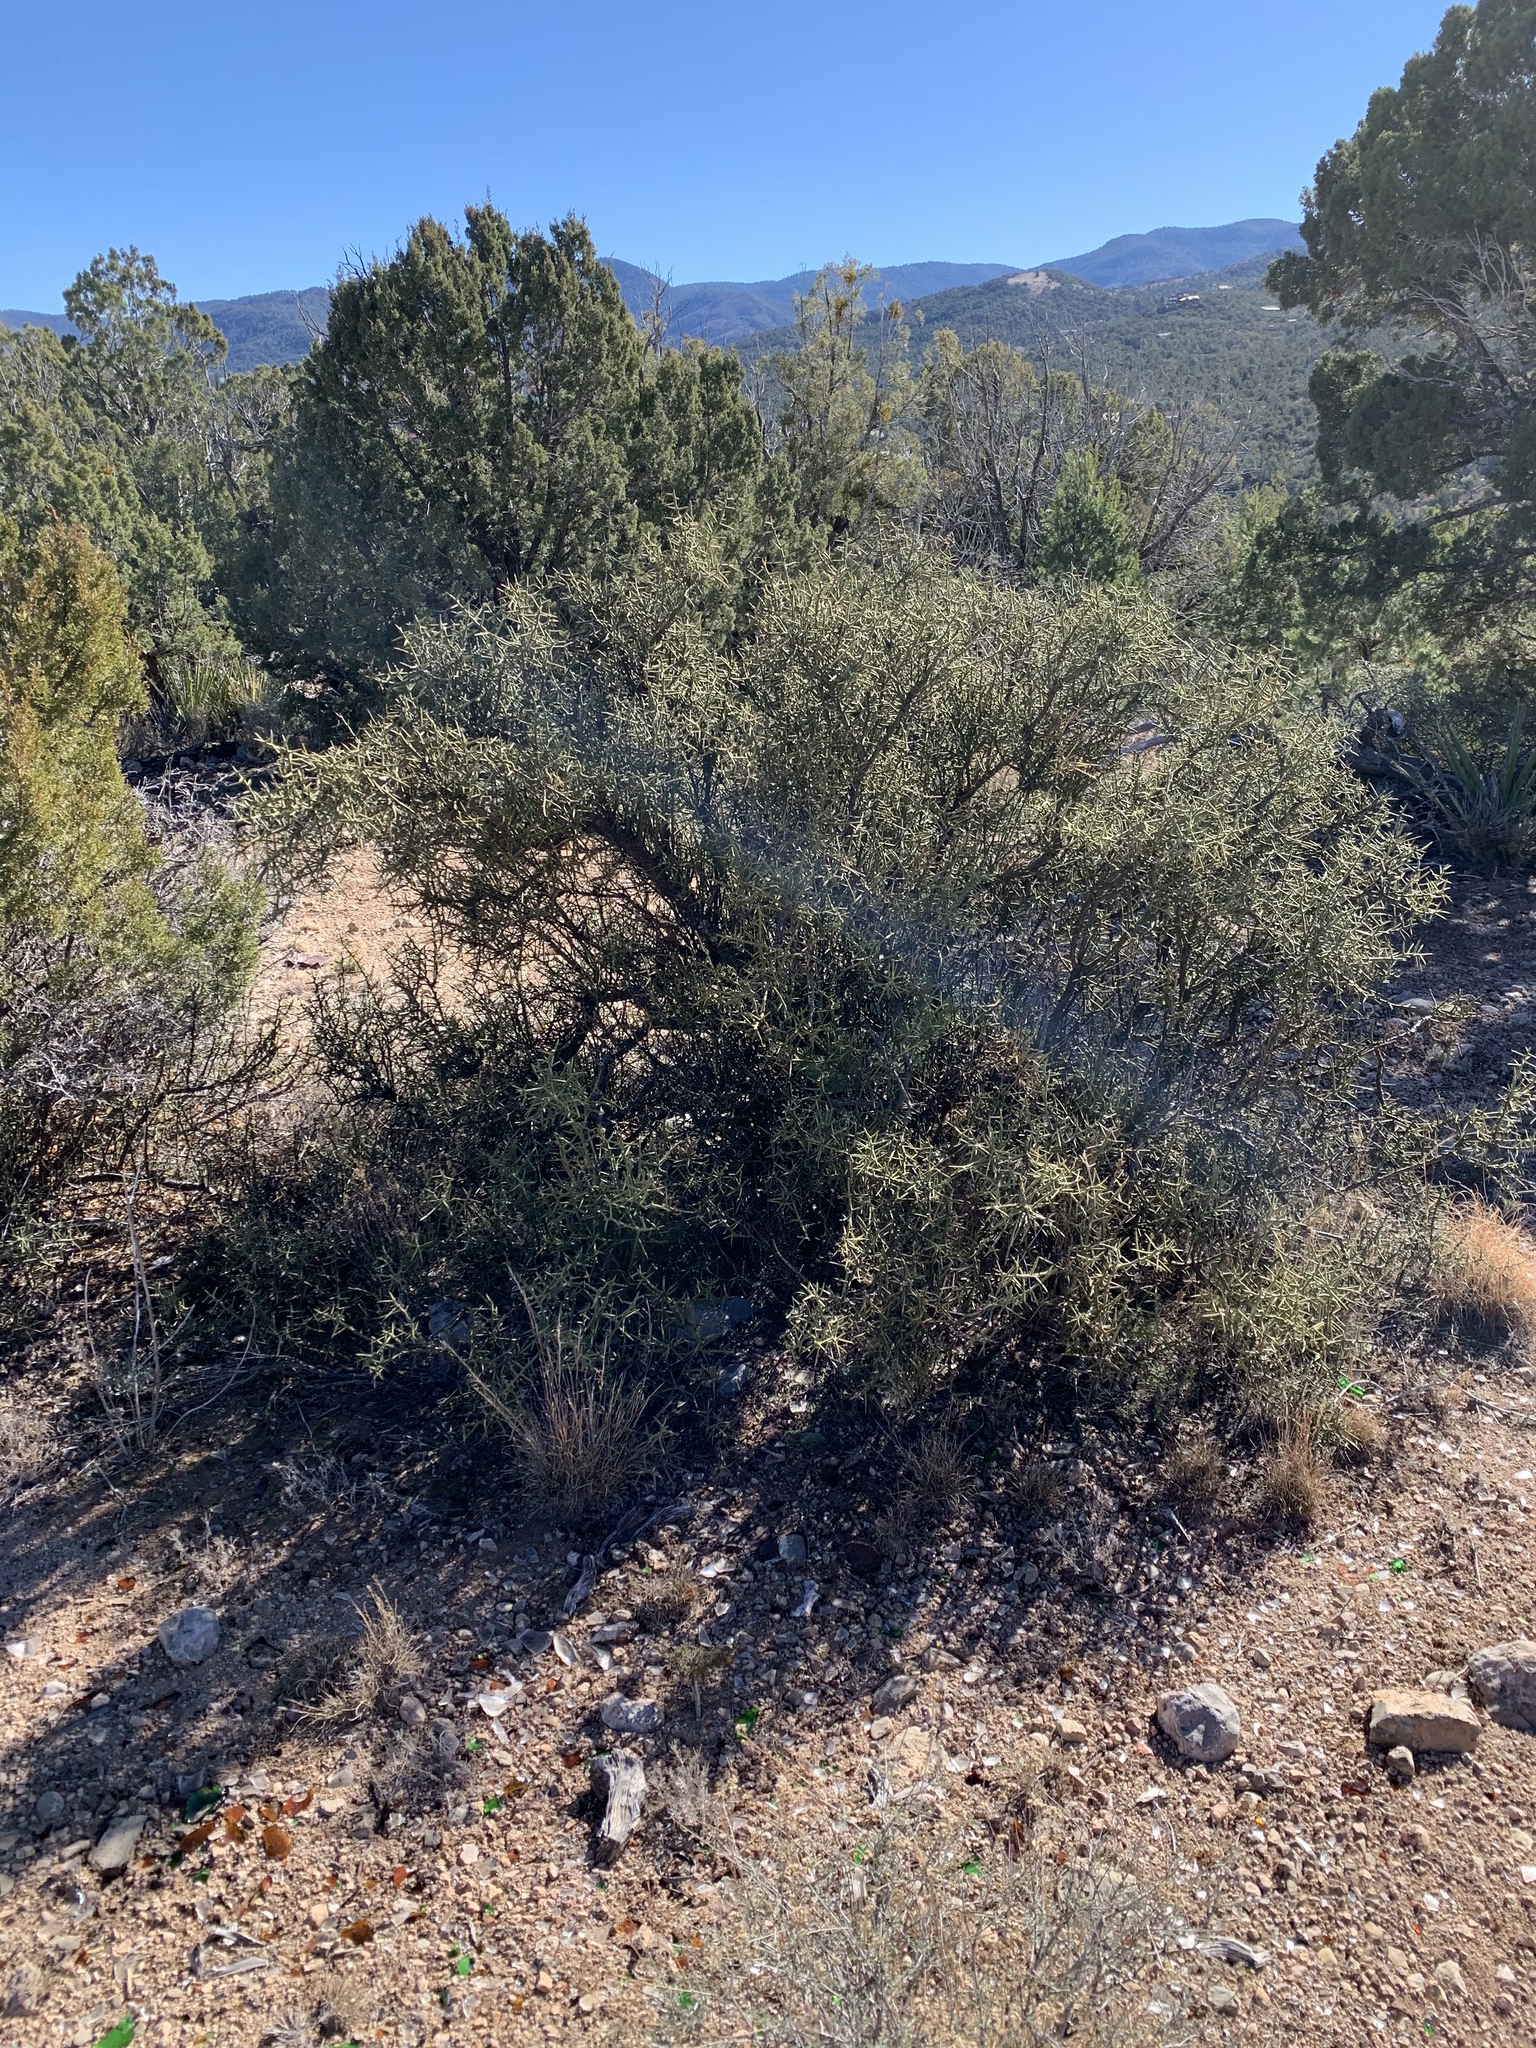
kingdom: Plantae
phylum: Tracheophyta
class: Magnoliopsida
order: Brassicales
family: Koeberliniaceae
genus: Koeberlinia
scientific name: Koeberlinia spinosa
